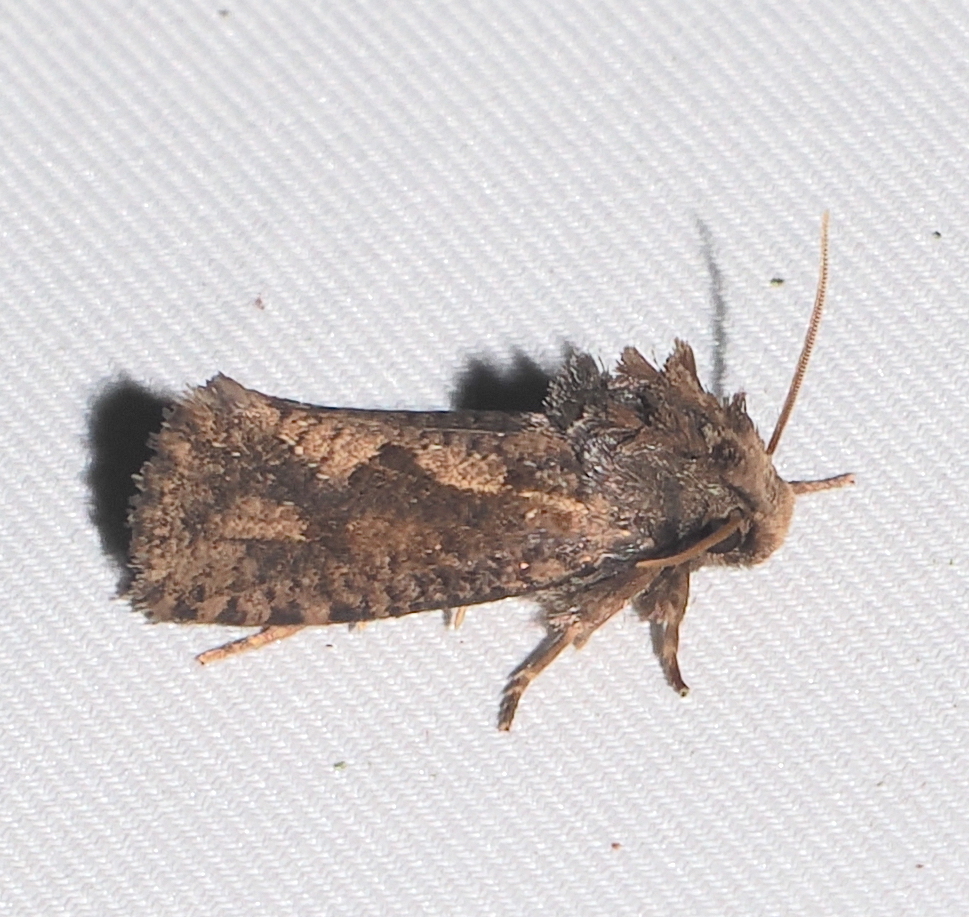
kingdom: Animalia
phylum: Arthropoda
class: Insecta
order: Lepidoptera
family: Tineidae
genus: Acrolophus
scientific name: Acrolophus walsinghami
